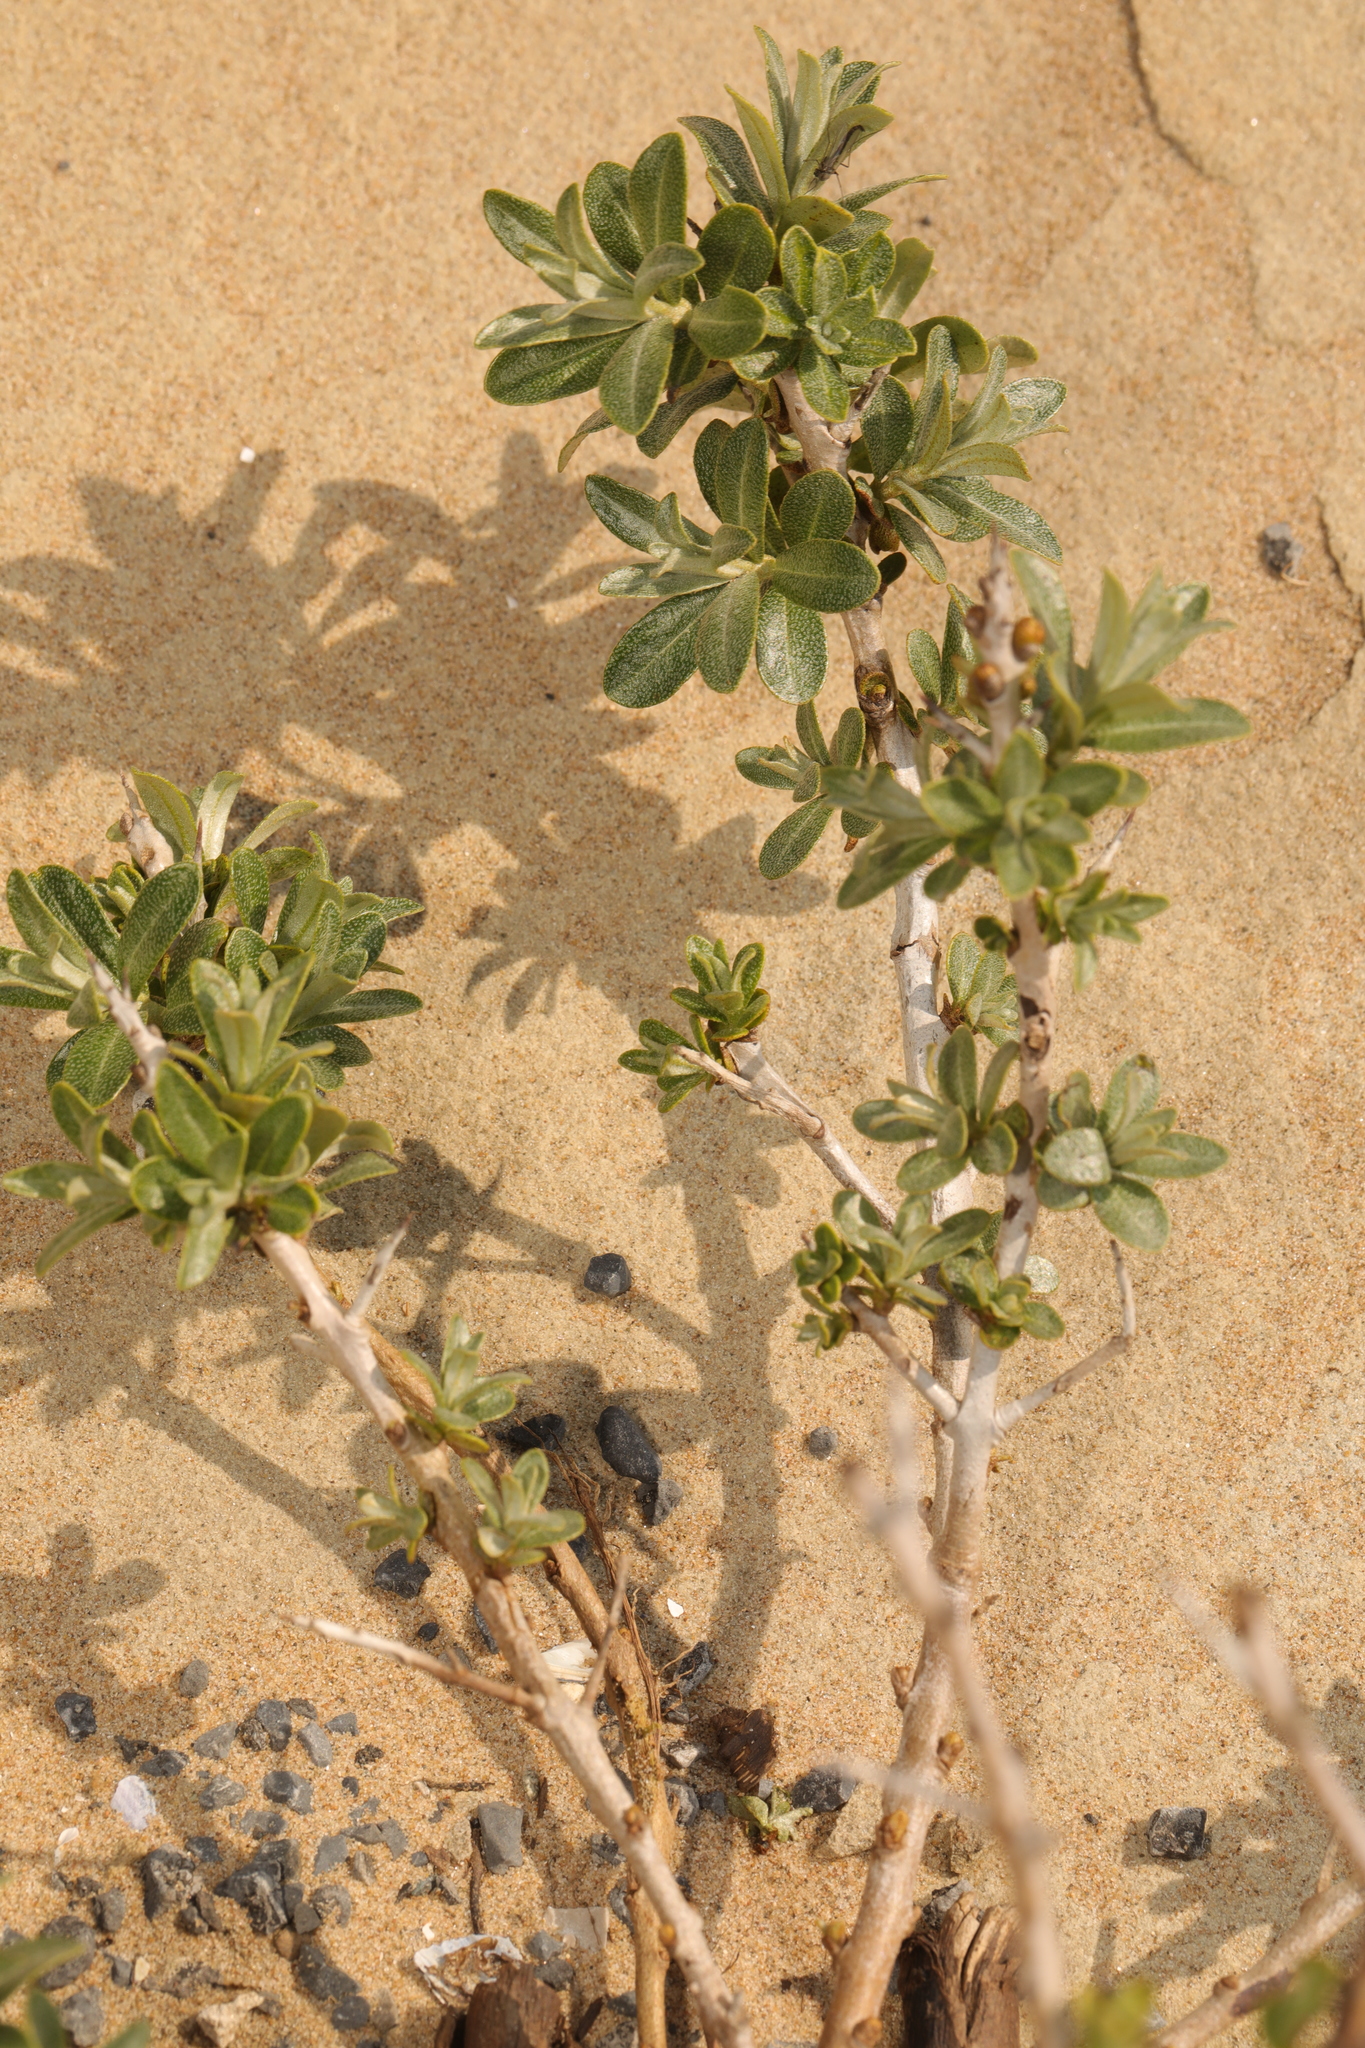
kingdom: Plantae
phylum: Tracheophyta
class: Magnoliopsida
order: Rosales
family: Elaeagnaceae
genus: Hippophae
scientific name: Hippophae rhamnoides
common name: Sea-buckthorn
